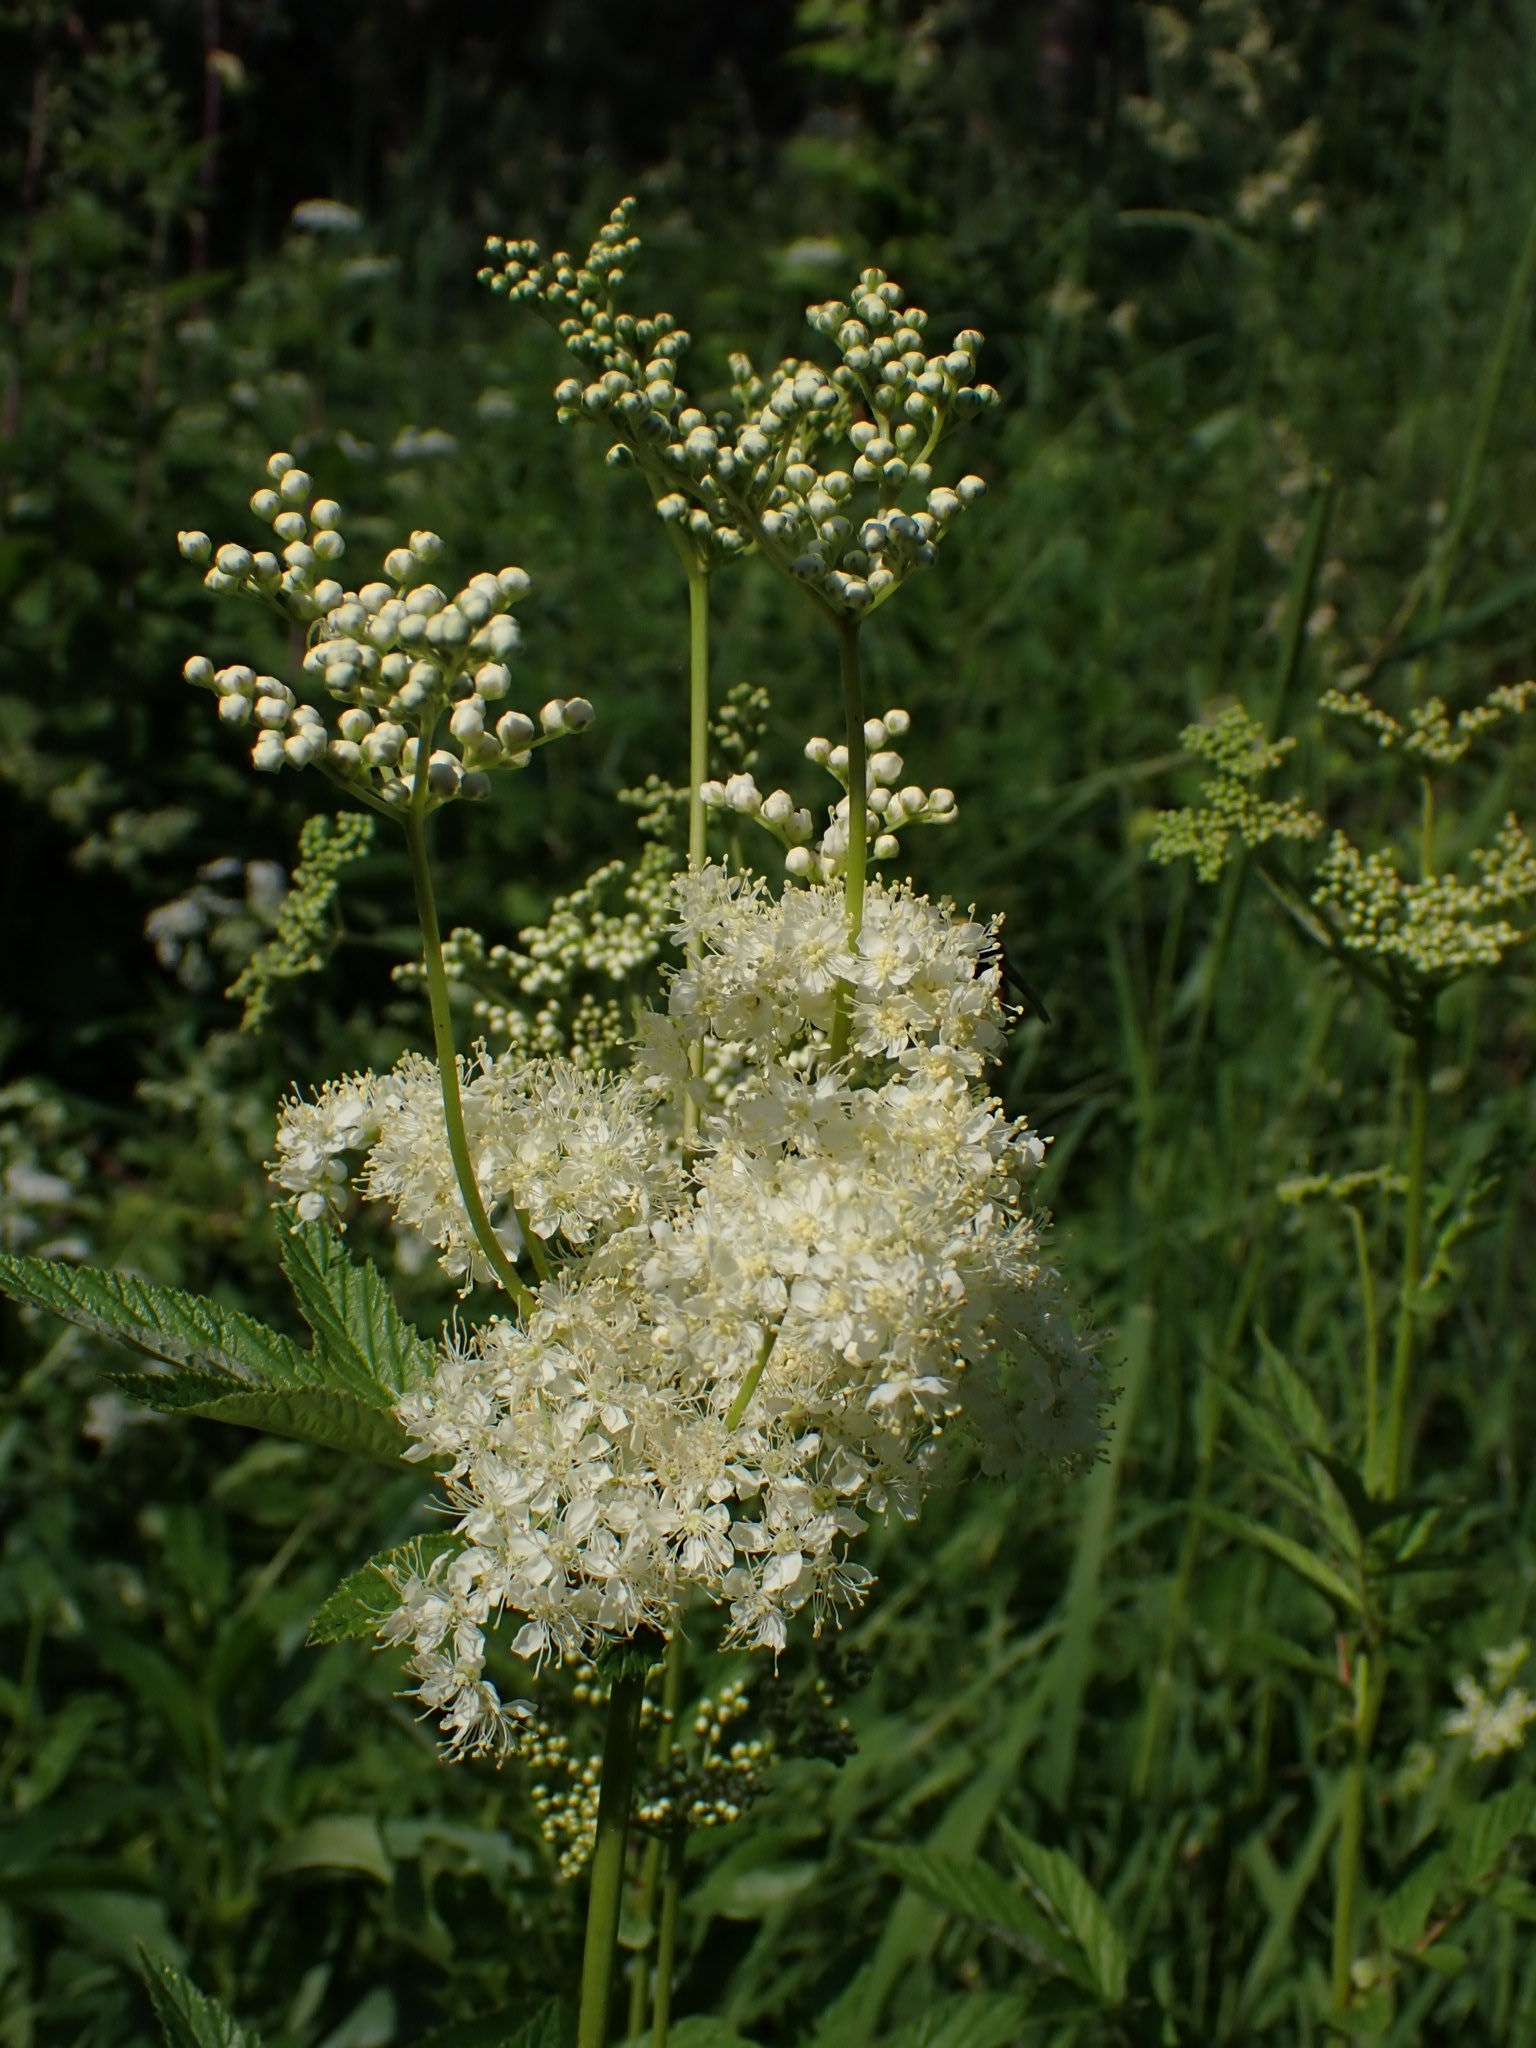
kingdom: Plantae
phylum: Tracheophyta
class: Magnoliopsida
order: Rosales
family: Rosaceae
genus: Filipendula
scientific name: Filipendula ulmaria
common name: Meadowsweet
